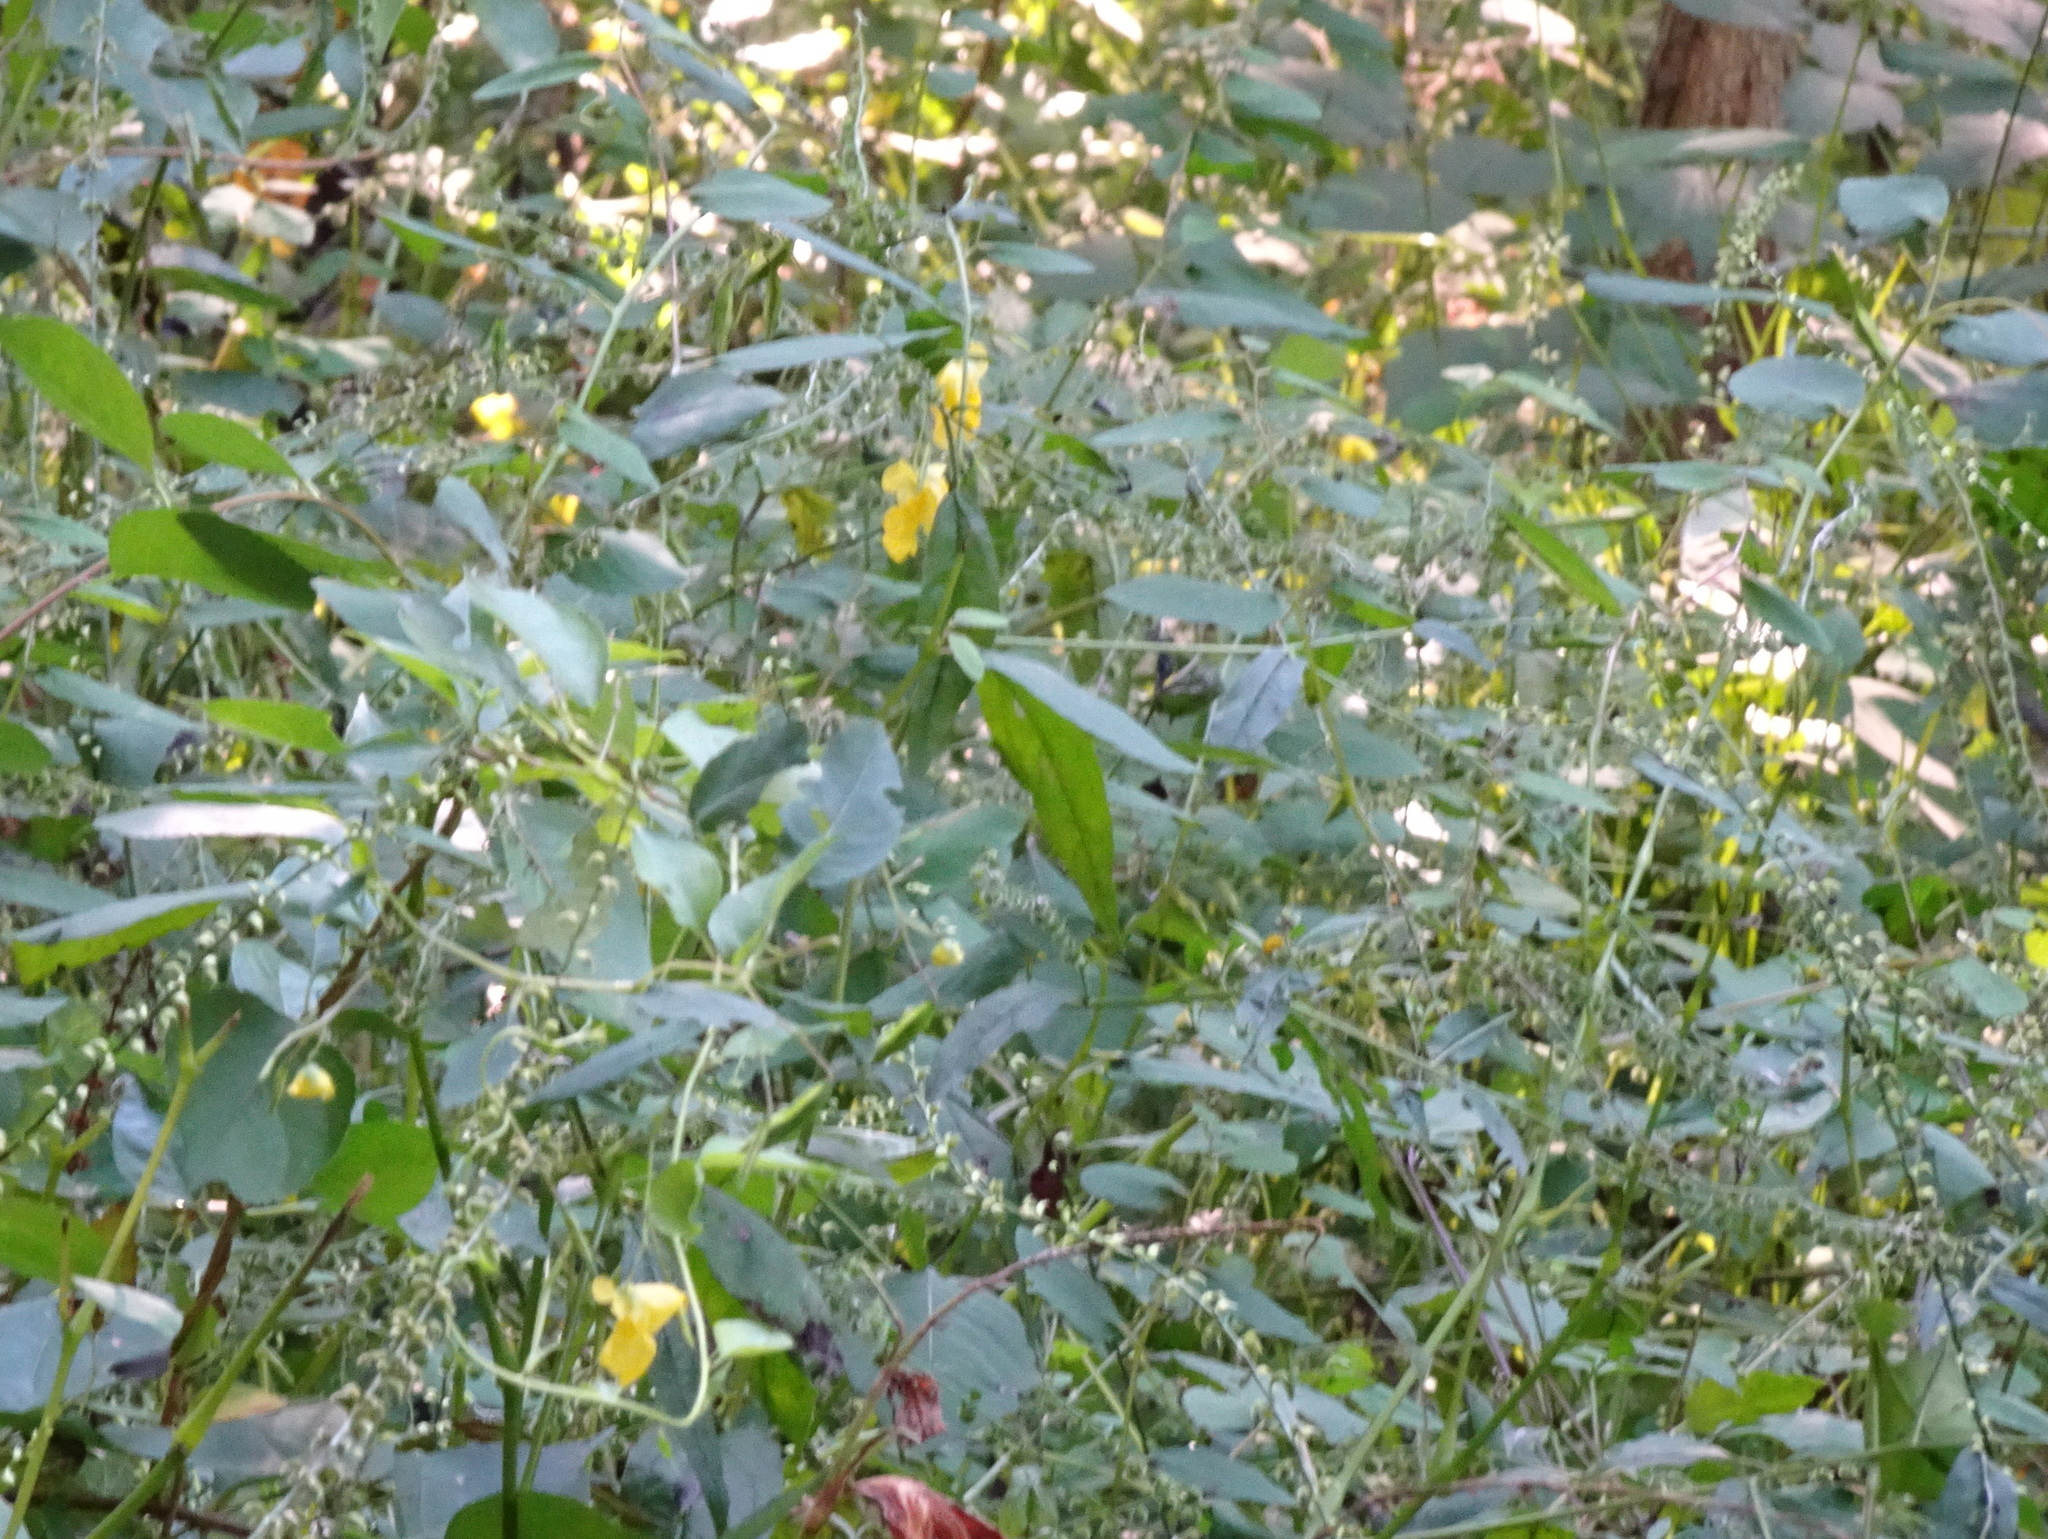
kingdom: Plantae
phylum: Tracheophyta
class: Magnoliopsida
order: Ericales
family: Balsaminaceae
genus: Impatiens
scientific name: Impatiens pallida
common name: Pale snapweed
